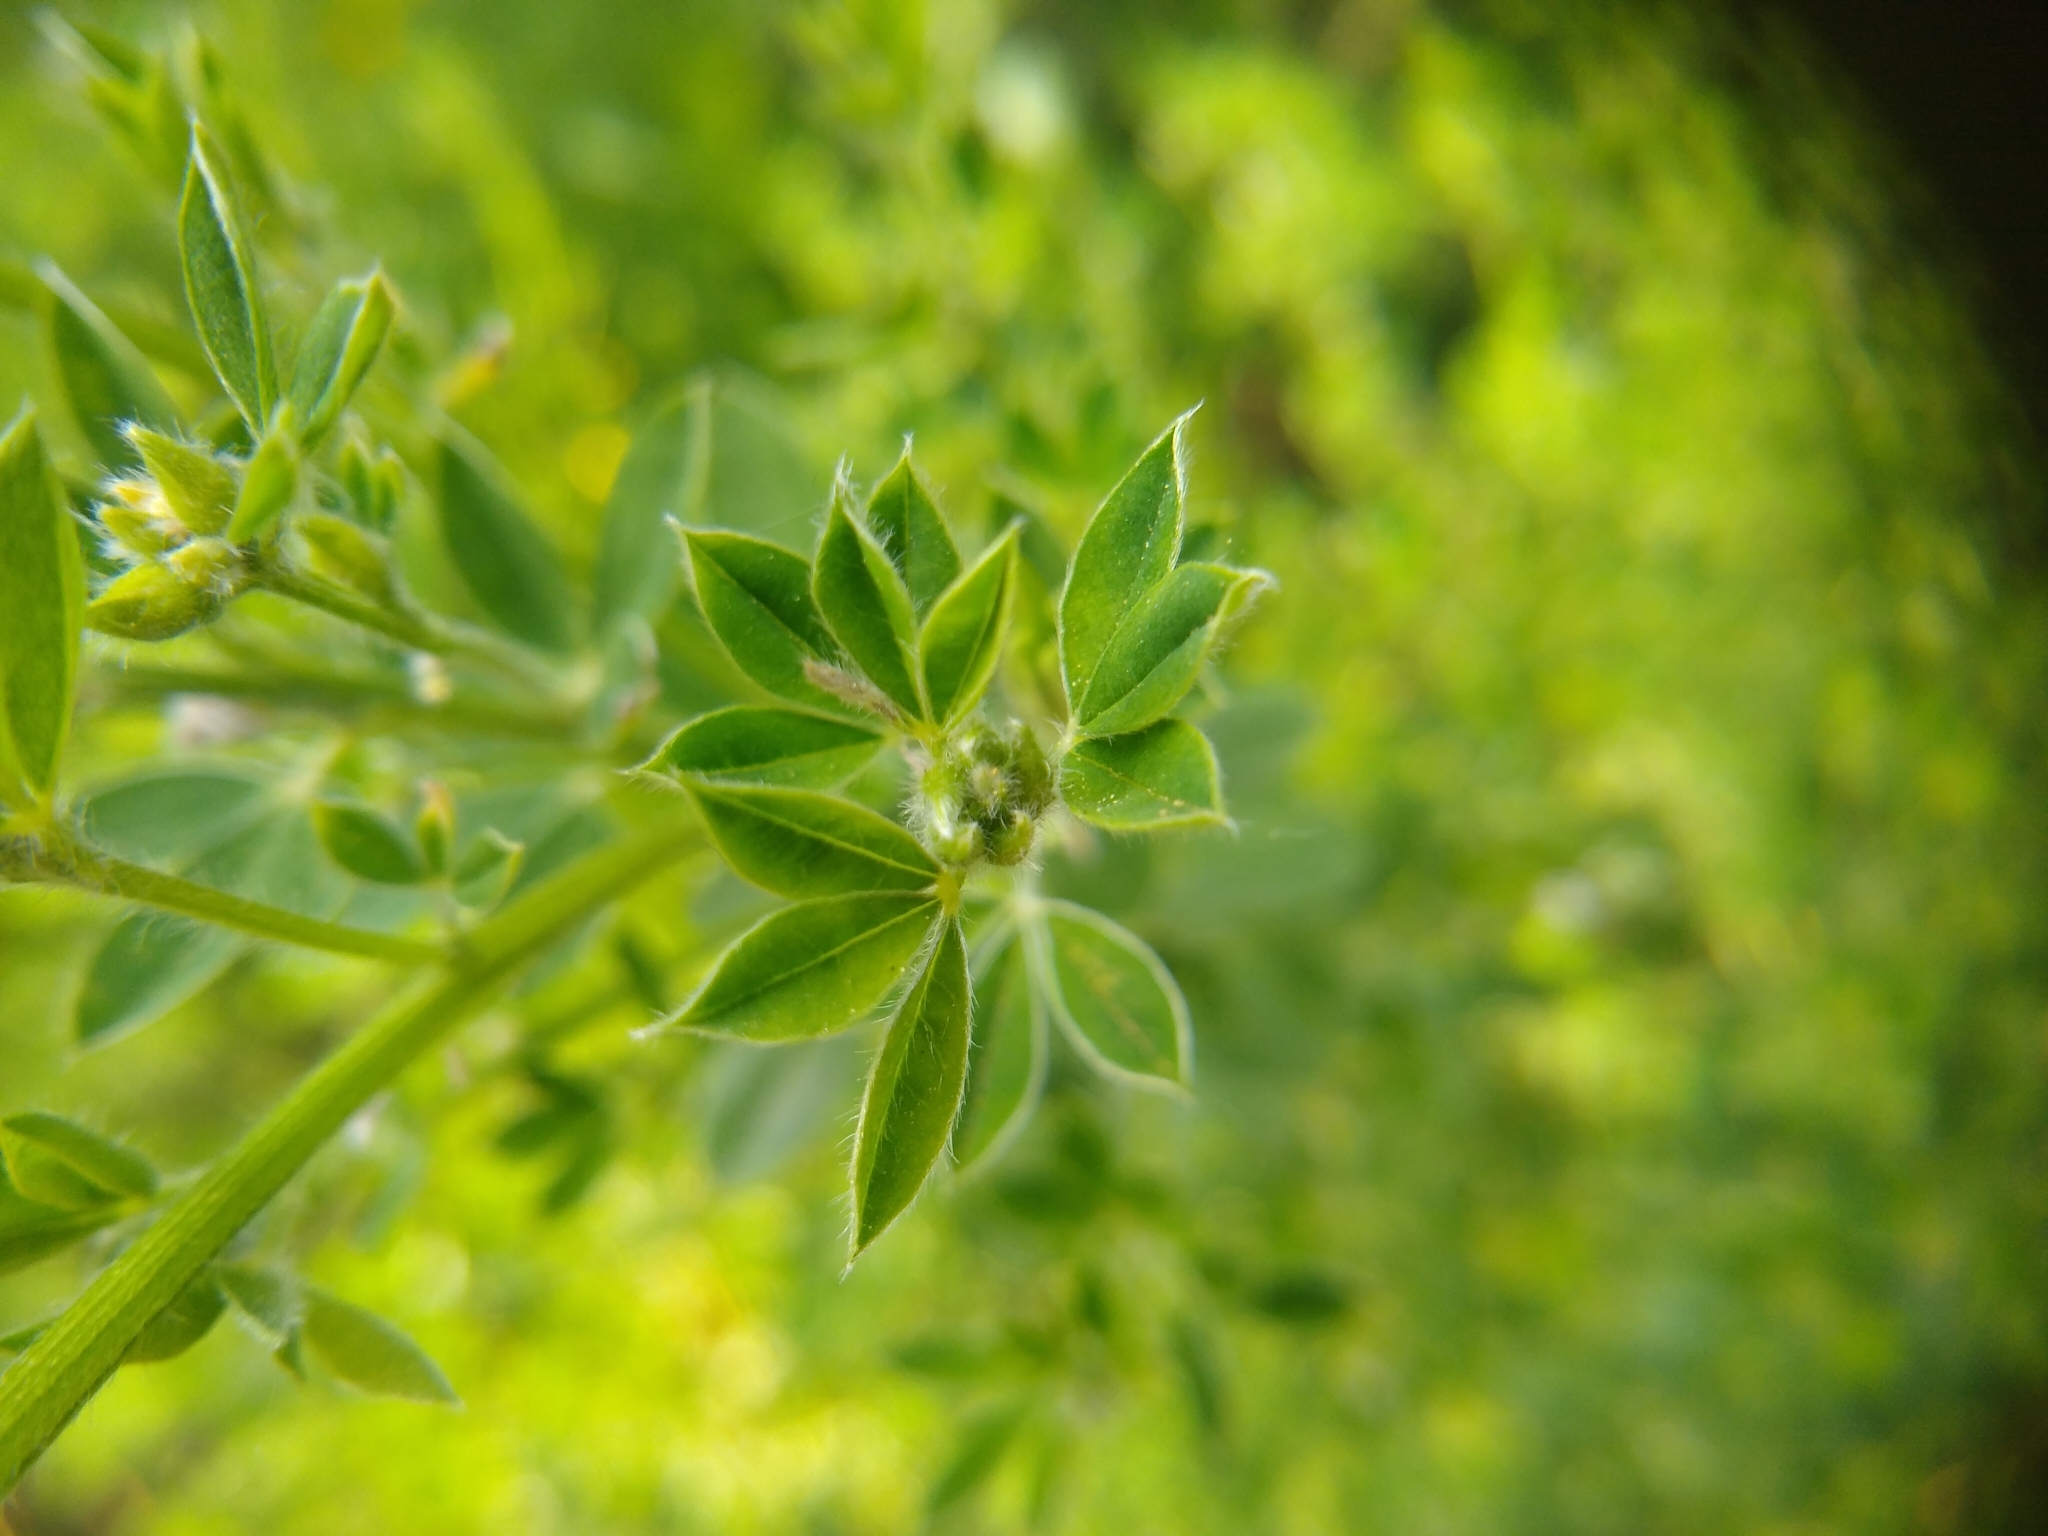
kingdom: Plantae
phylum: Tracheophyta
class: Magnoliopsida
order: Fabales
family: Fabaceae
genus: Genista
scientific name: Genista monspessulana
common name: Montpellier broom
